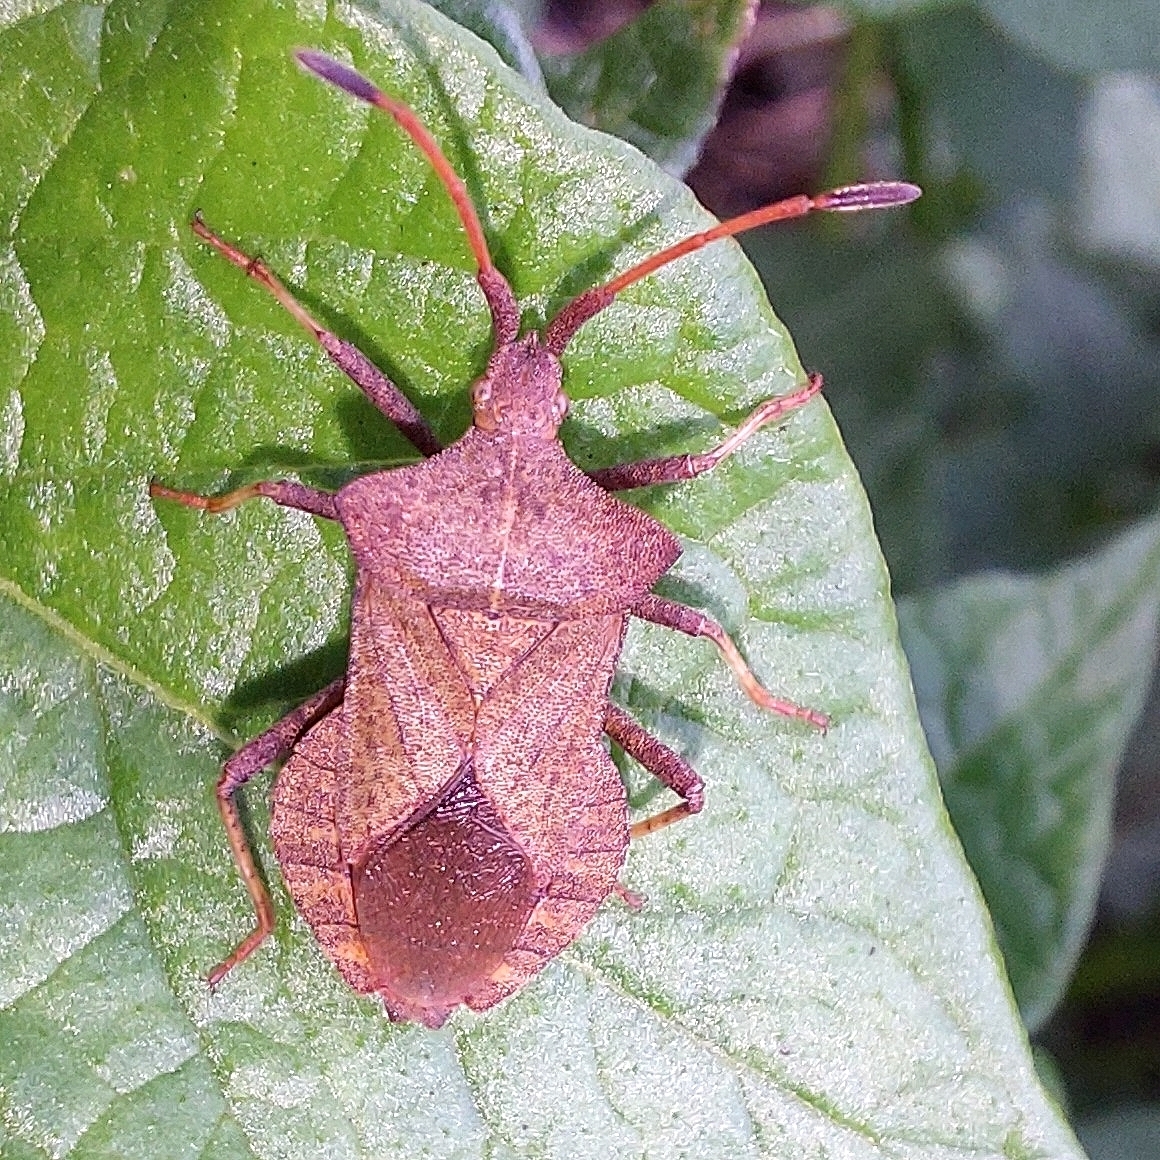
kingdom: Animalia
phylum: Arthropoda
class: Insecta
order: Hemiptera
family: Coreidae
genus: Coreus
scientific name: Coreus marginatus
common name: Dock bug
